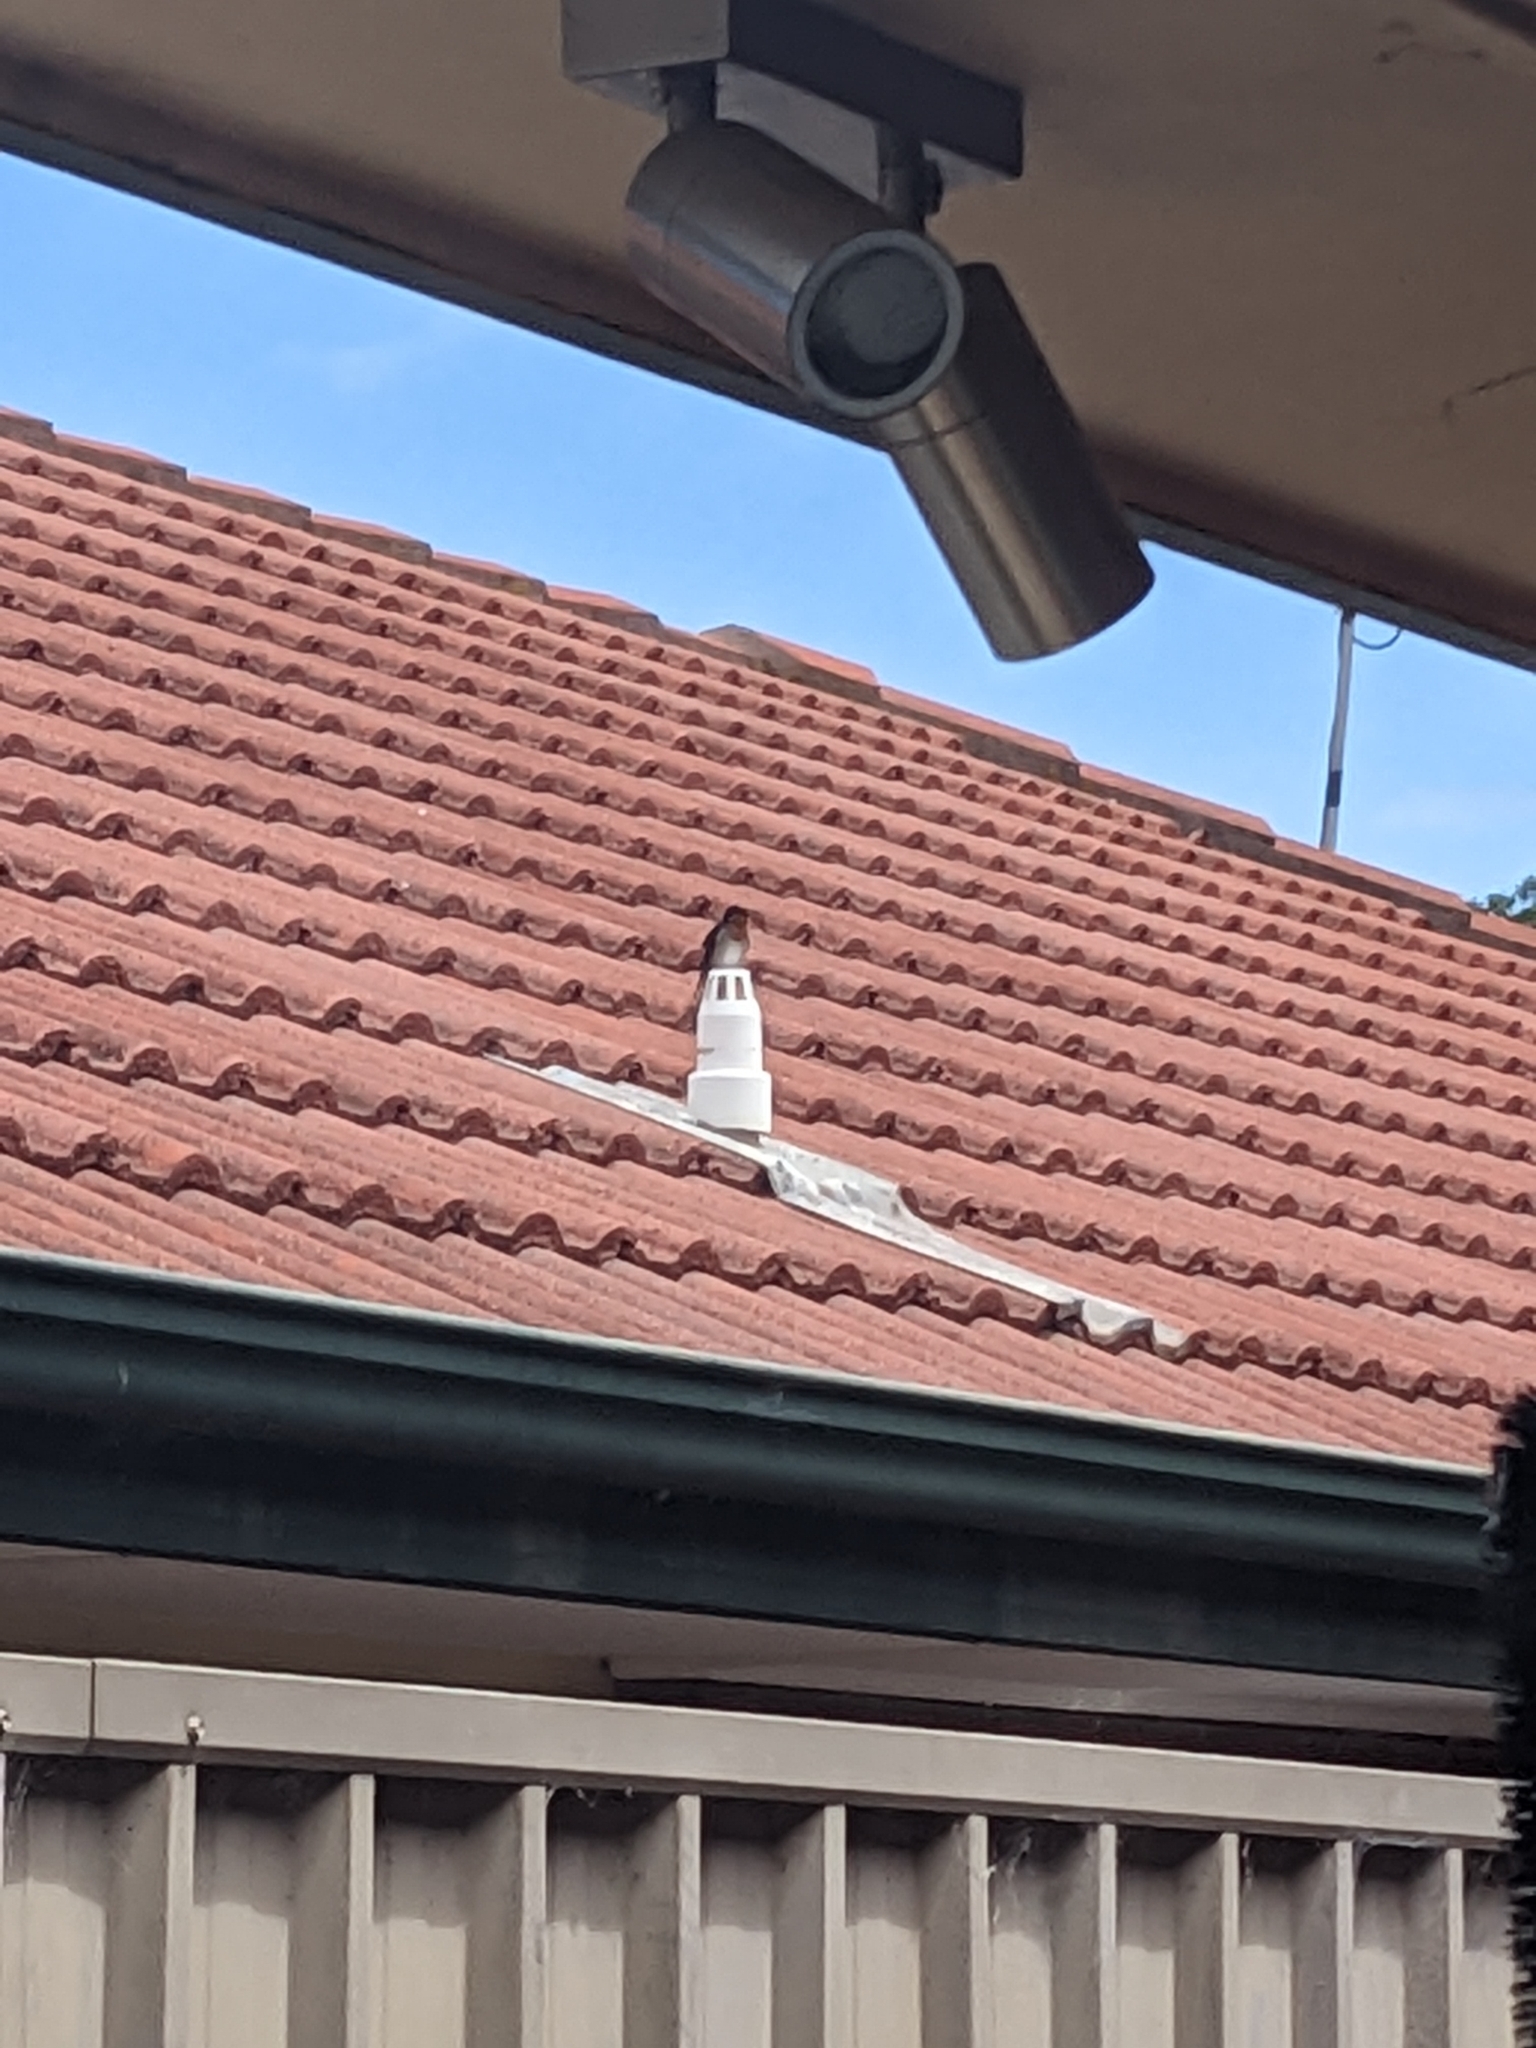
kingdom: Animalia
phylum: Chordata
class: Aves
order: Passeriformes
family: Hirundinidae
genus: Hirundo
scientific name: Hirundo neoxena
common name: Welcome swallow
